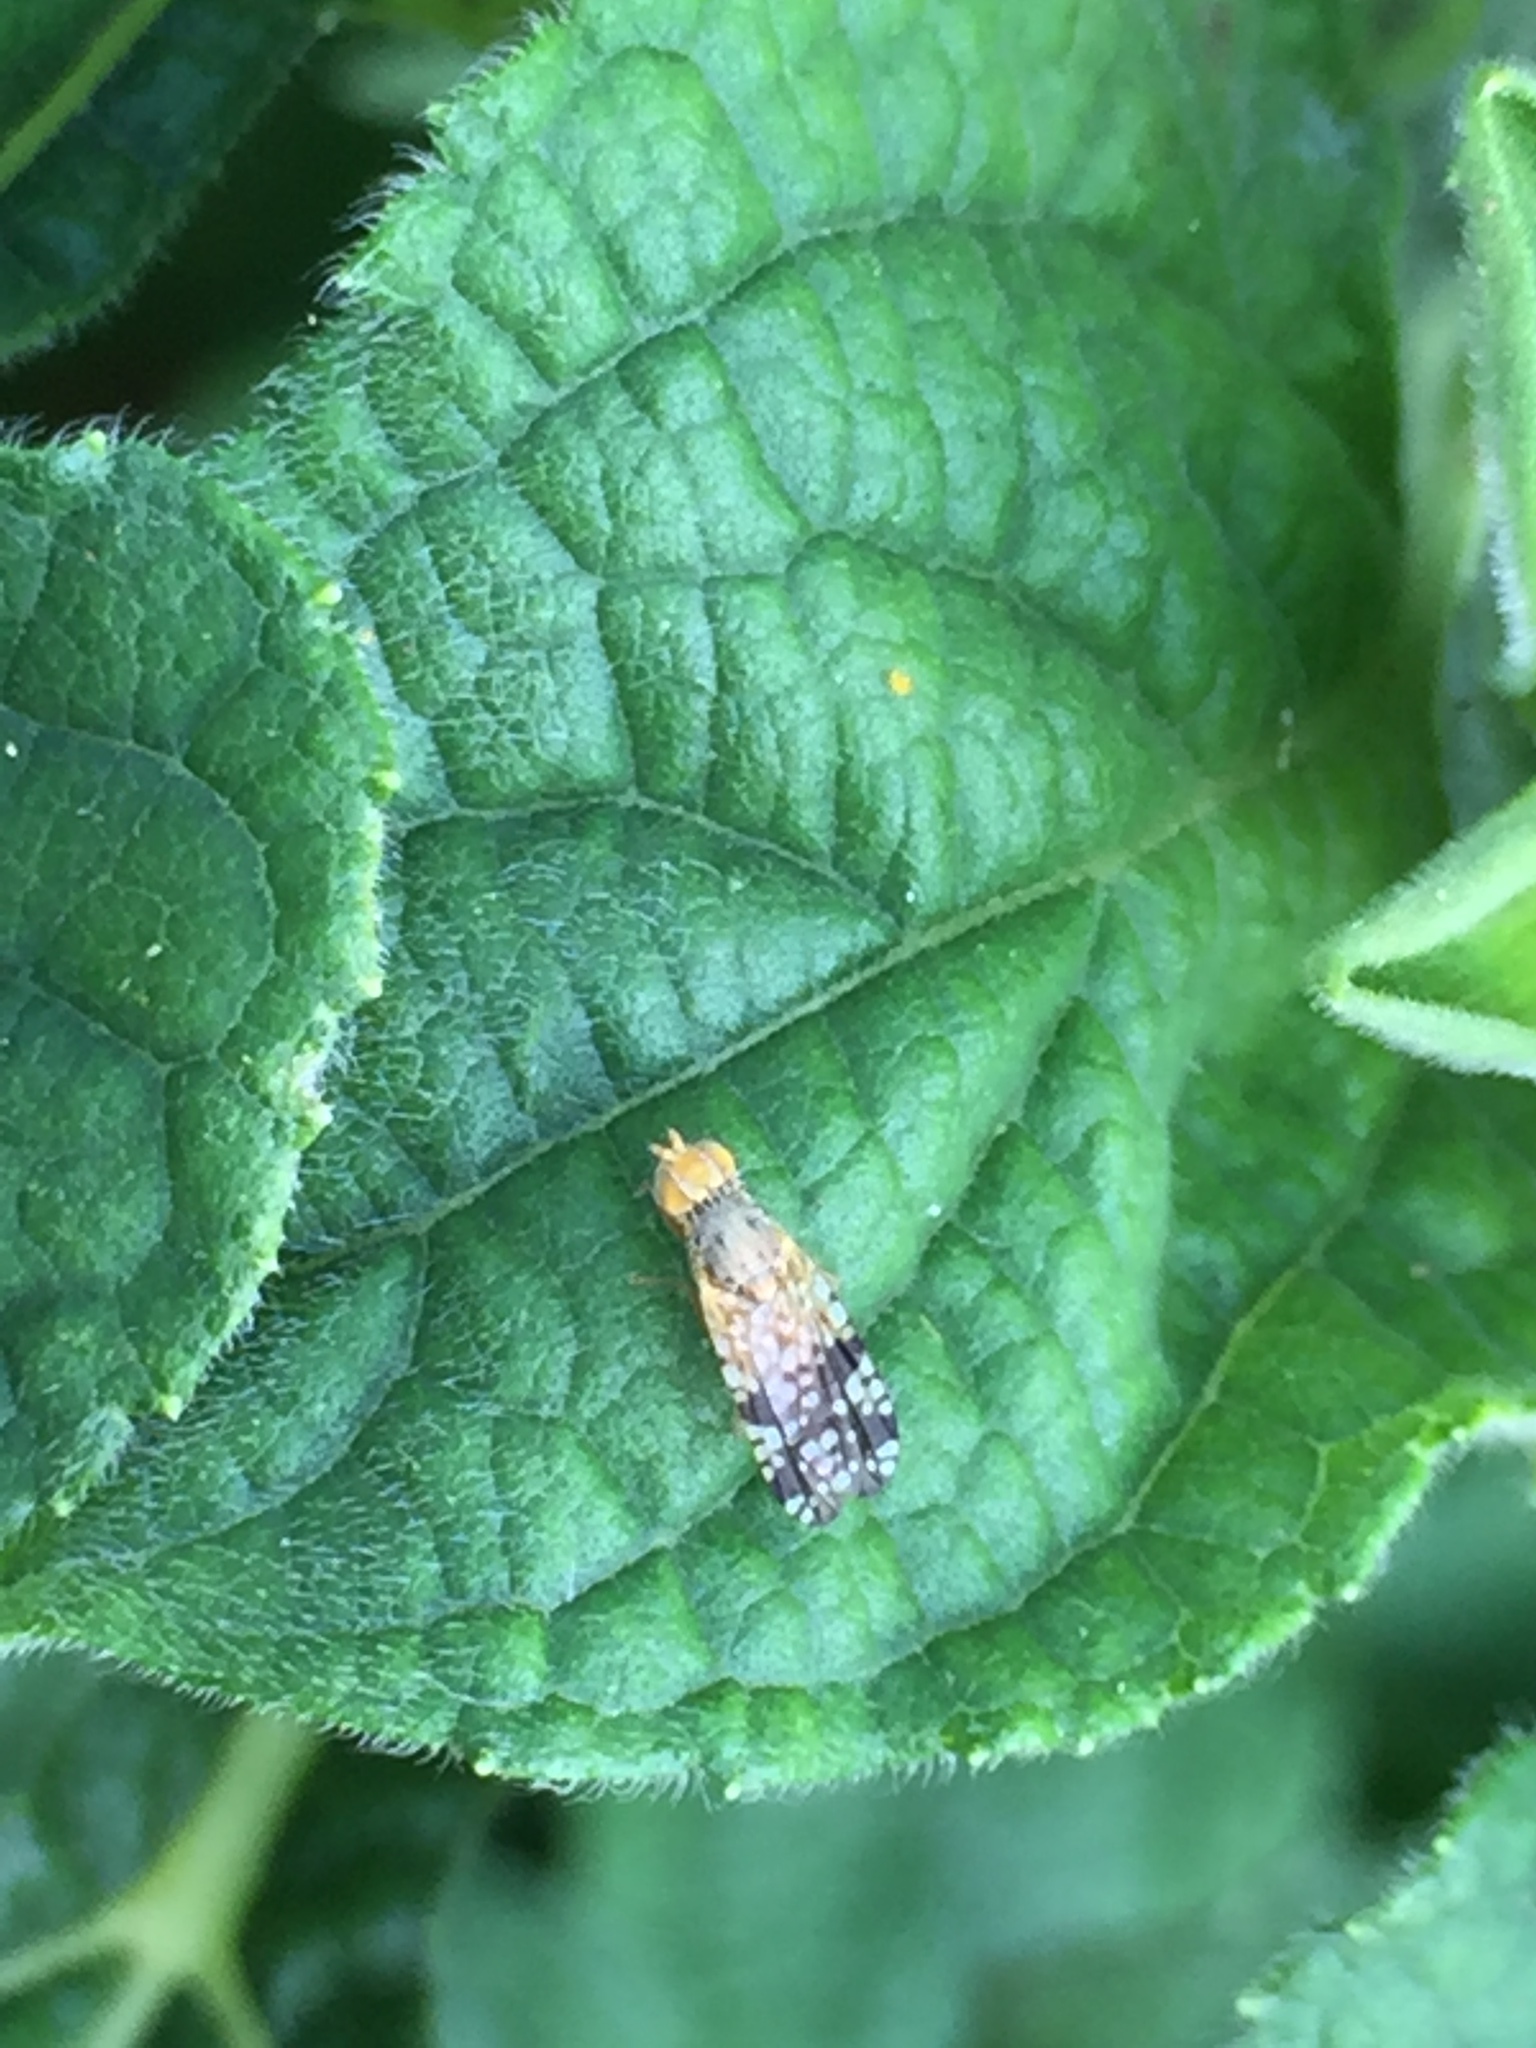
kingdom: Animalia
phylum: Arthropoda
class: Insecta
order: Diptera
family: Tephritidae
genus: Neotephritis
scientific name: Neotephritis finalis
